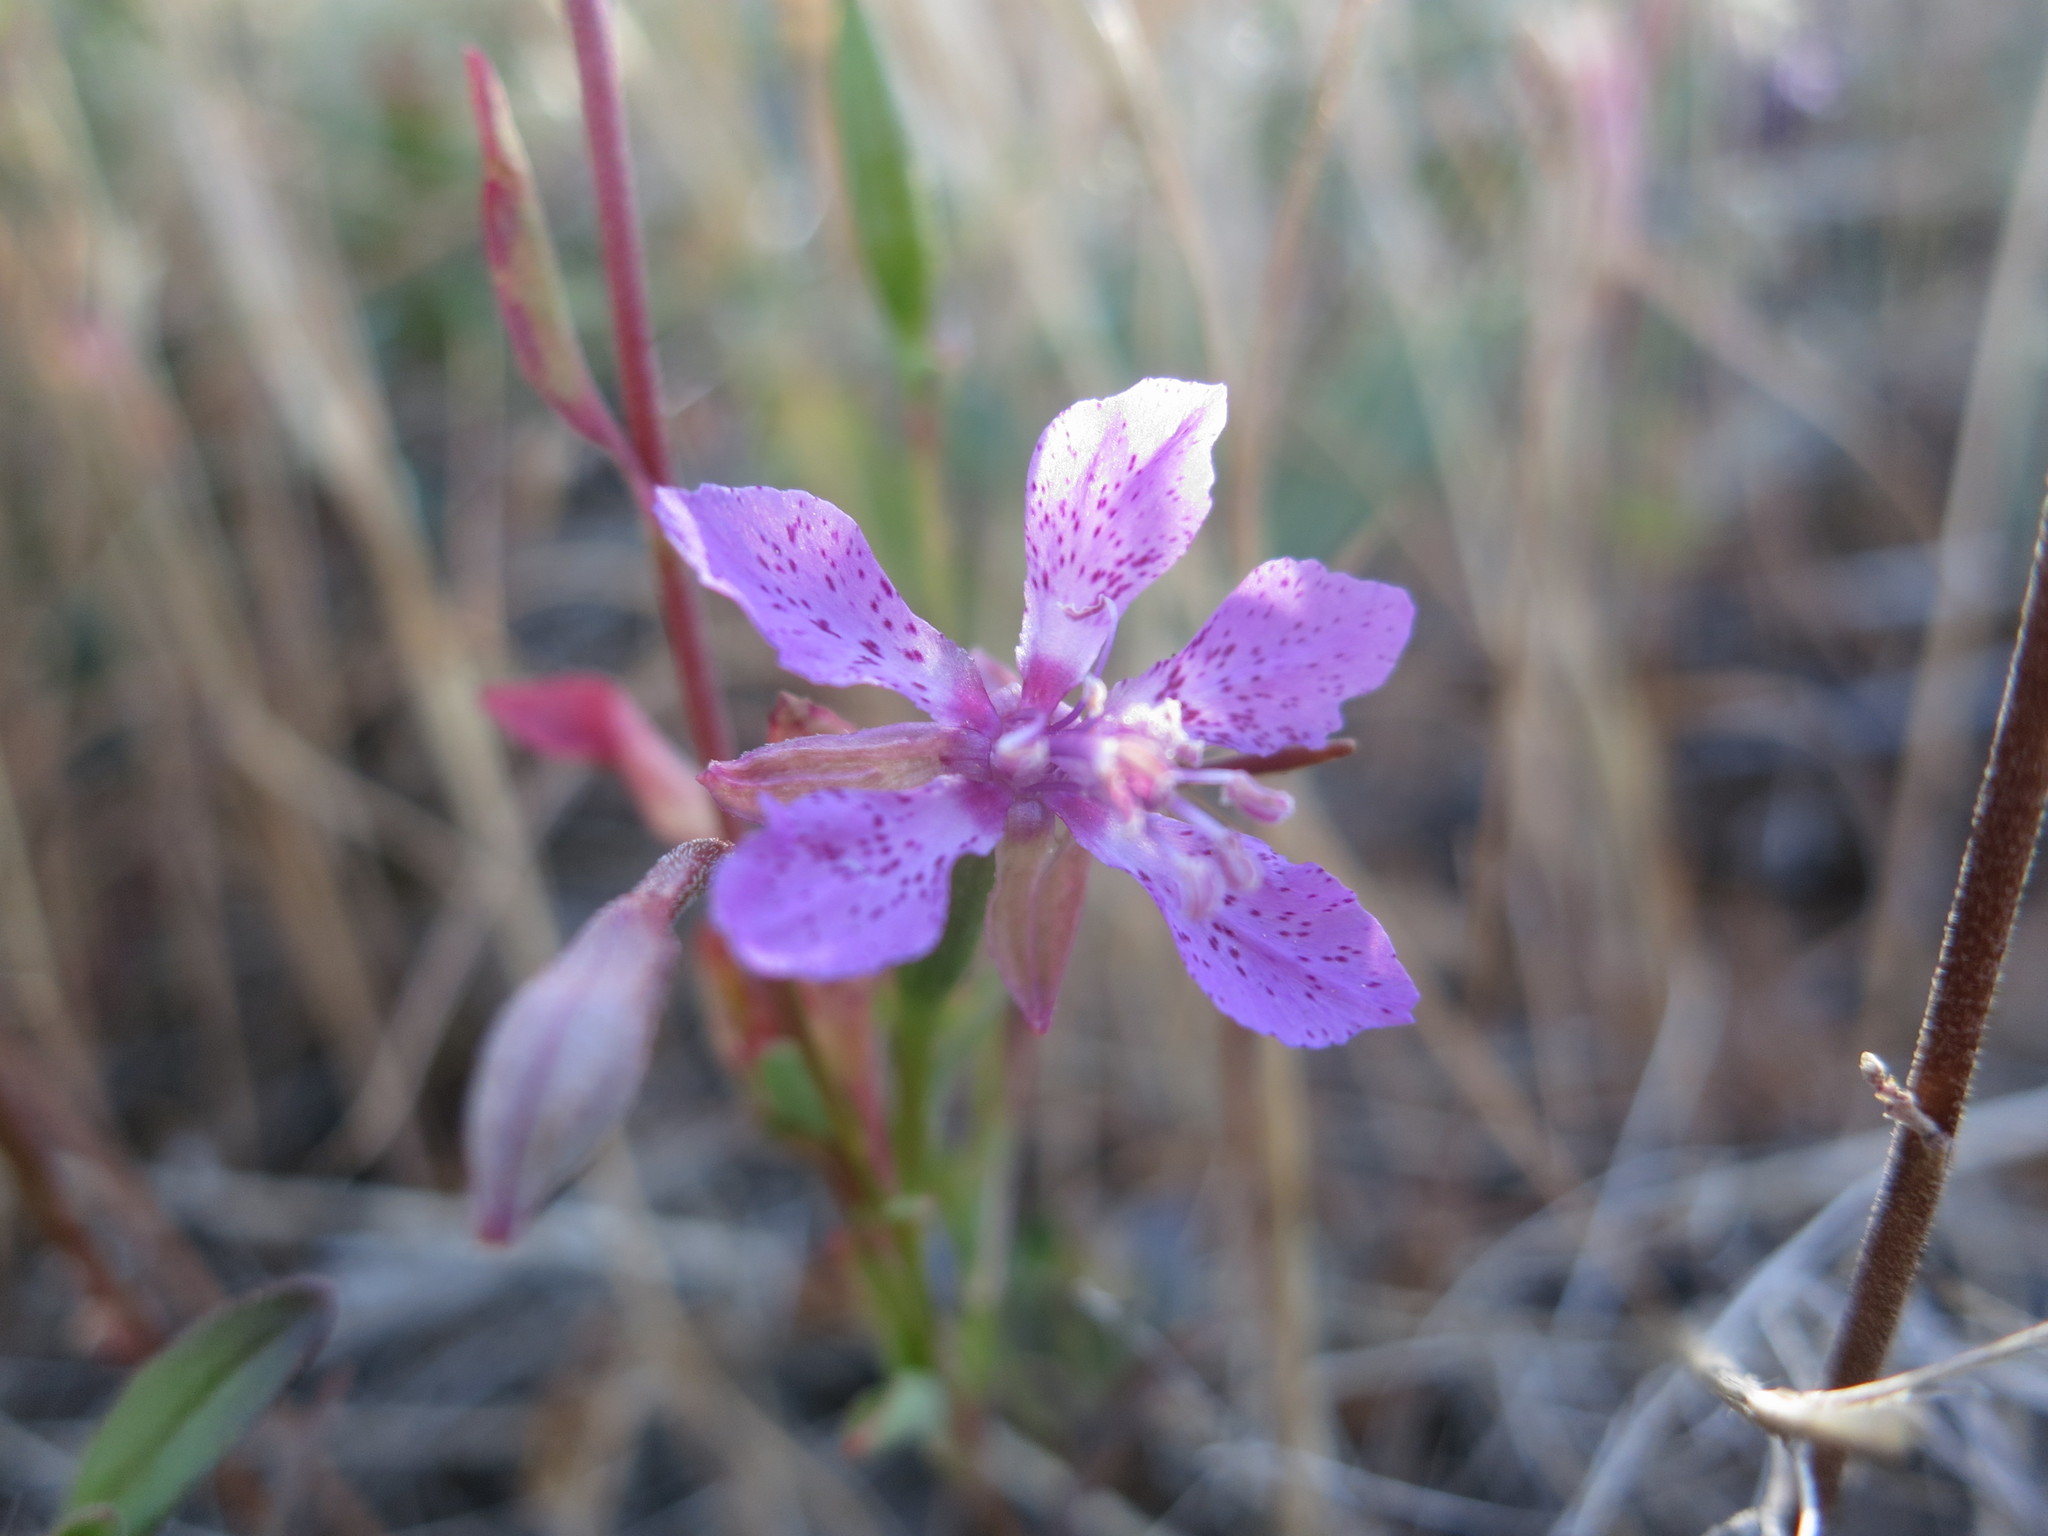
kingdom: Plantae
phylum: Tracheophyta
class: Magnoliopsida
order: Myrtales
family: Onagraceae
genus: Clarkia
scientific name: Clarkia rhomboidea
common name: Broadleaf clarkia
